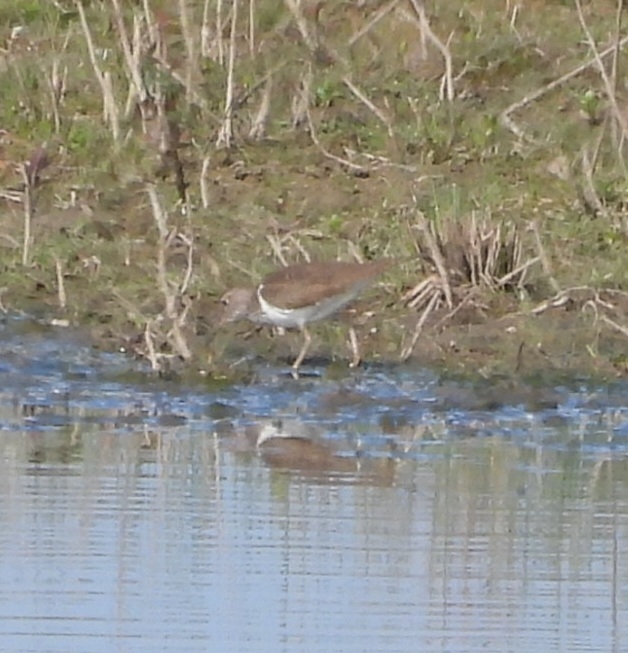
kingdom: Animalia
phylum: Chordata
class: Aves
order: Charadriiformes
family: Scolopacidae
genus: Actitis
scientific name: Actitis hypoleucos
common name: Common sandpiper
